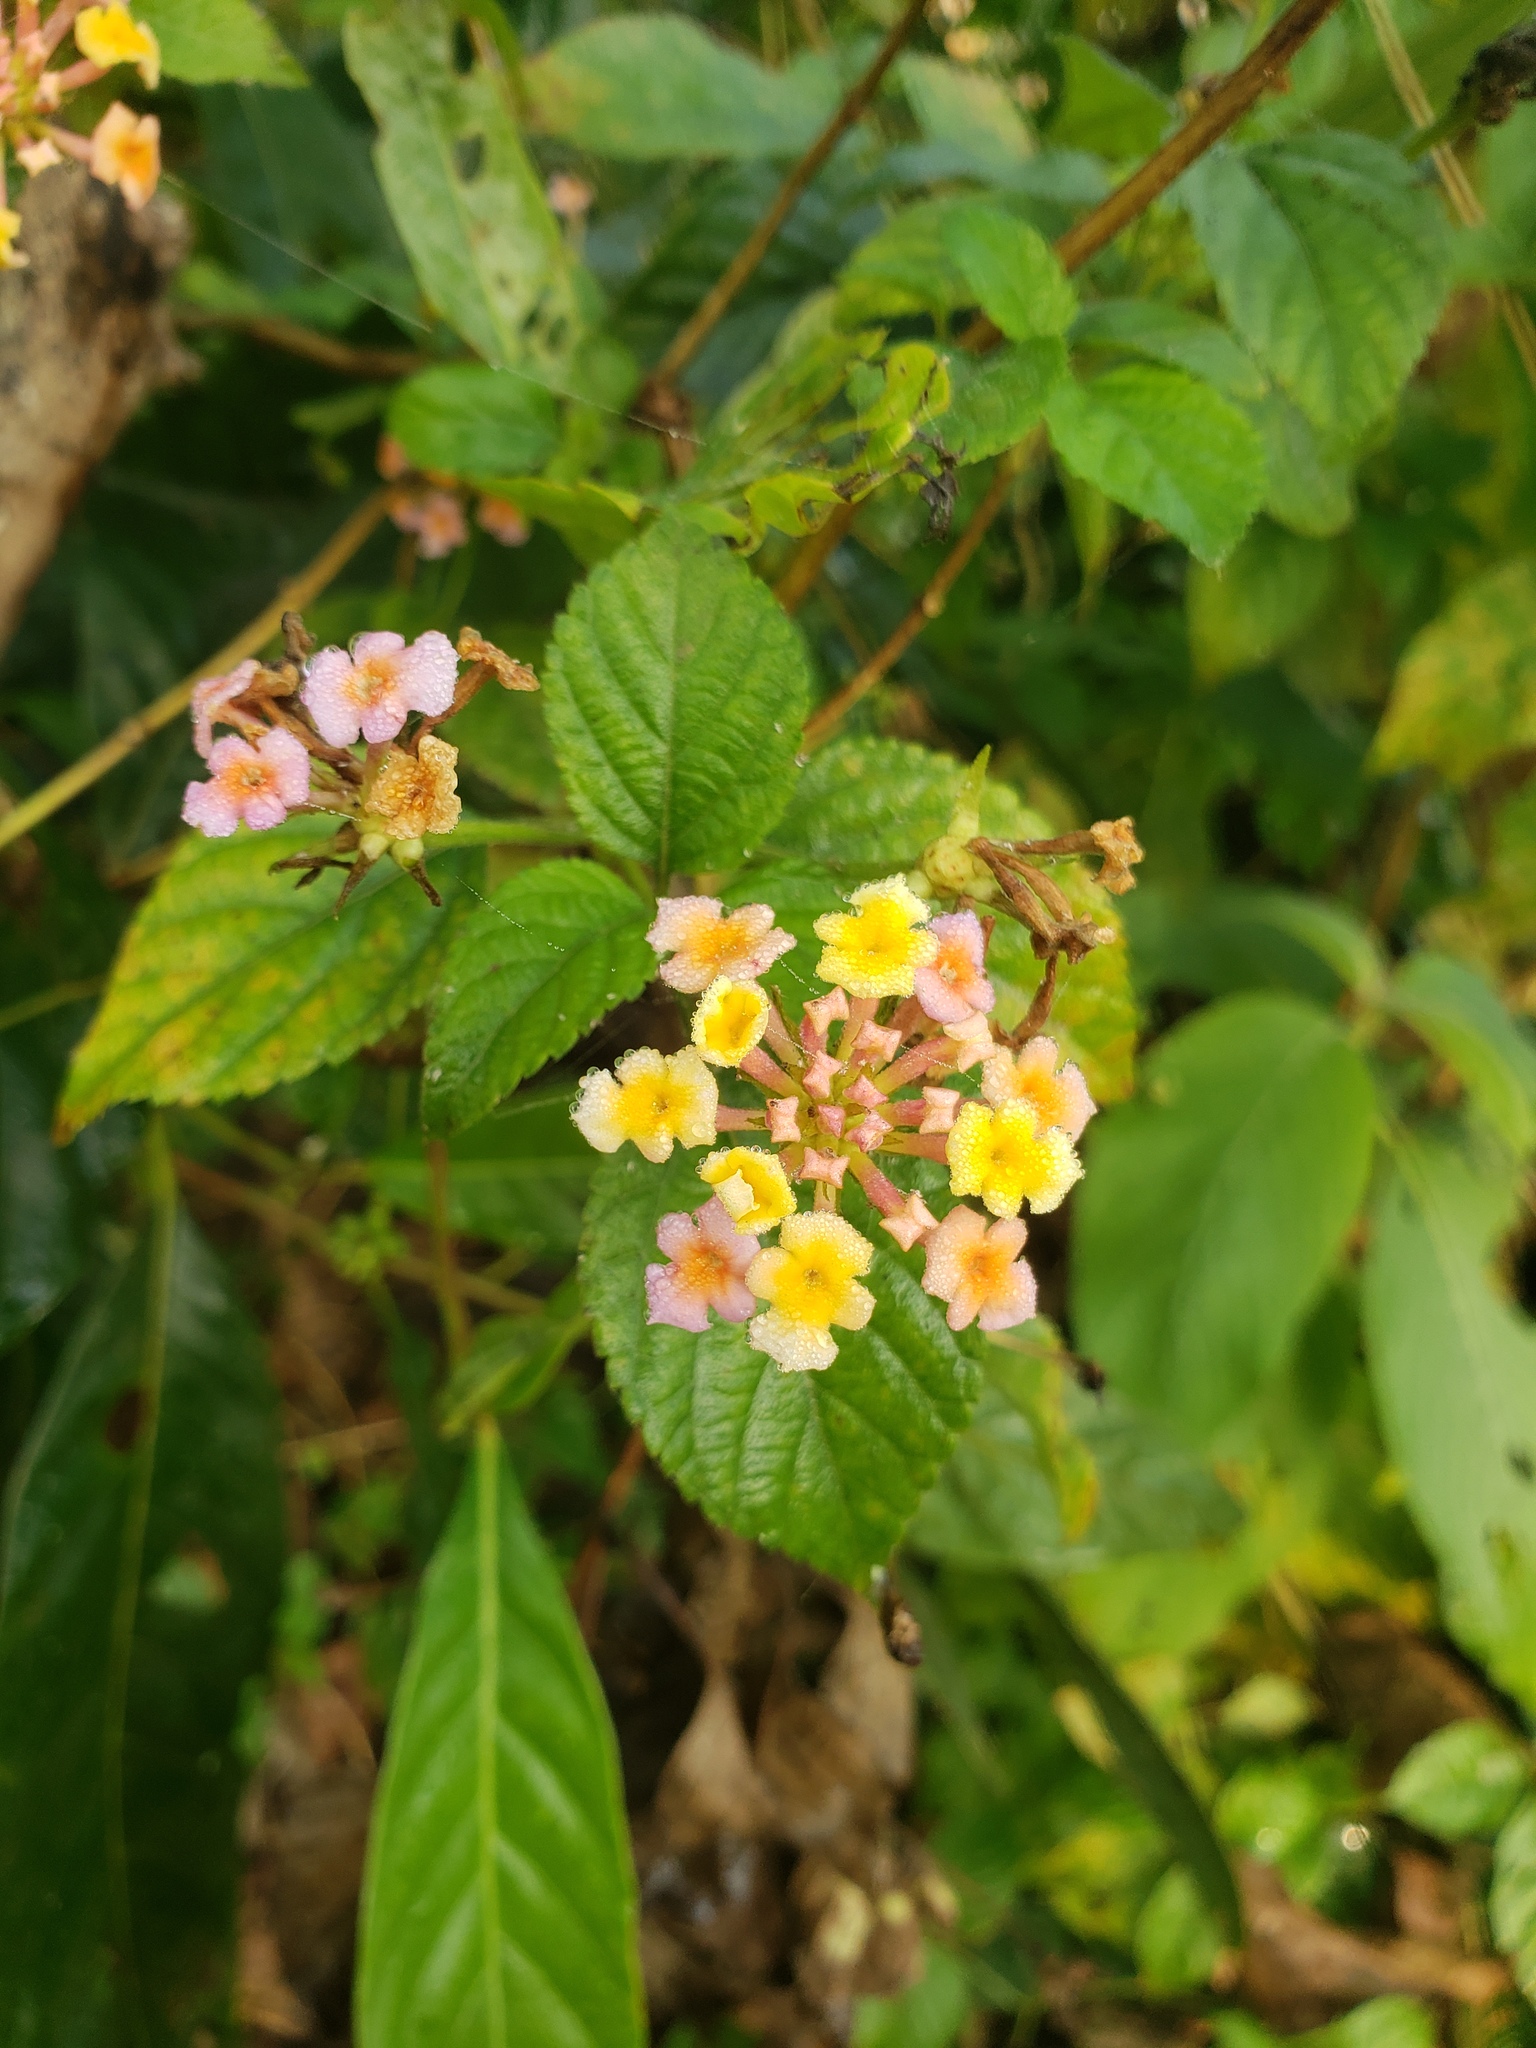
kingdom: Plantae
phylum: Tracheophyta
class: Magnoliopsida
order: Lamiales
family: Verbenaceae
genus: Lantana
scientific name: Lantana camara
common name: Lantana
